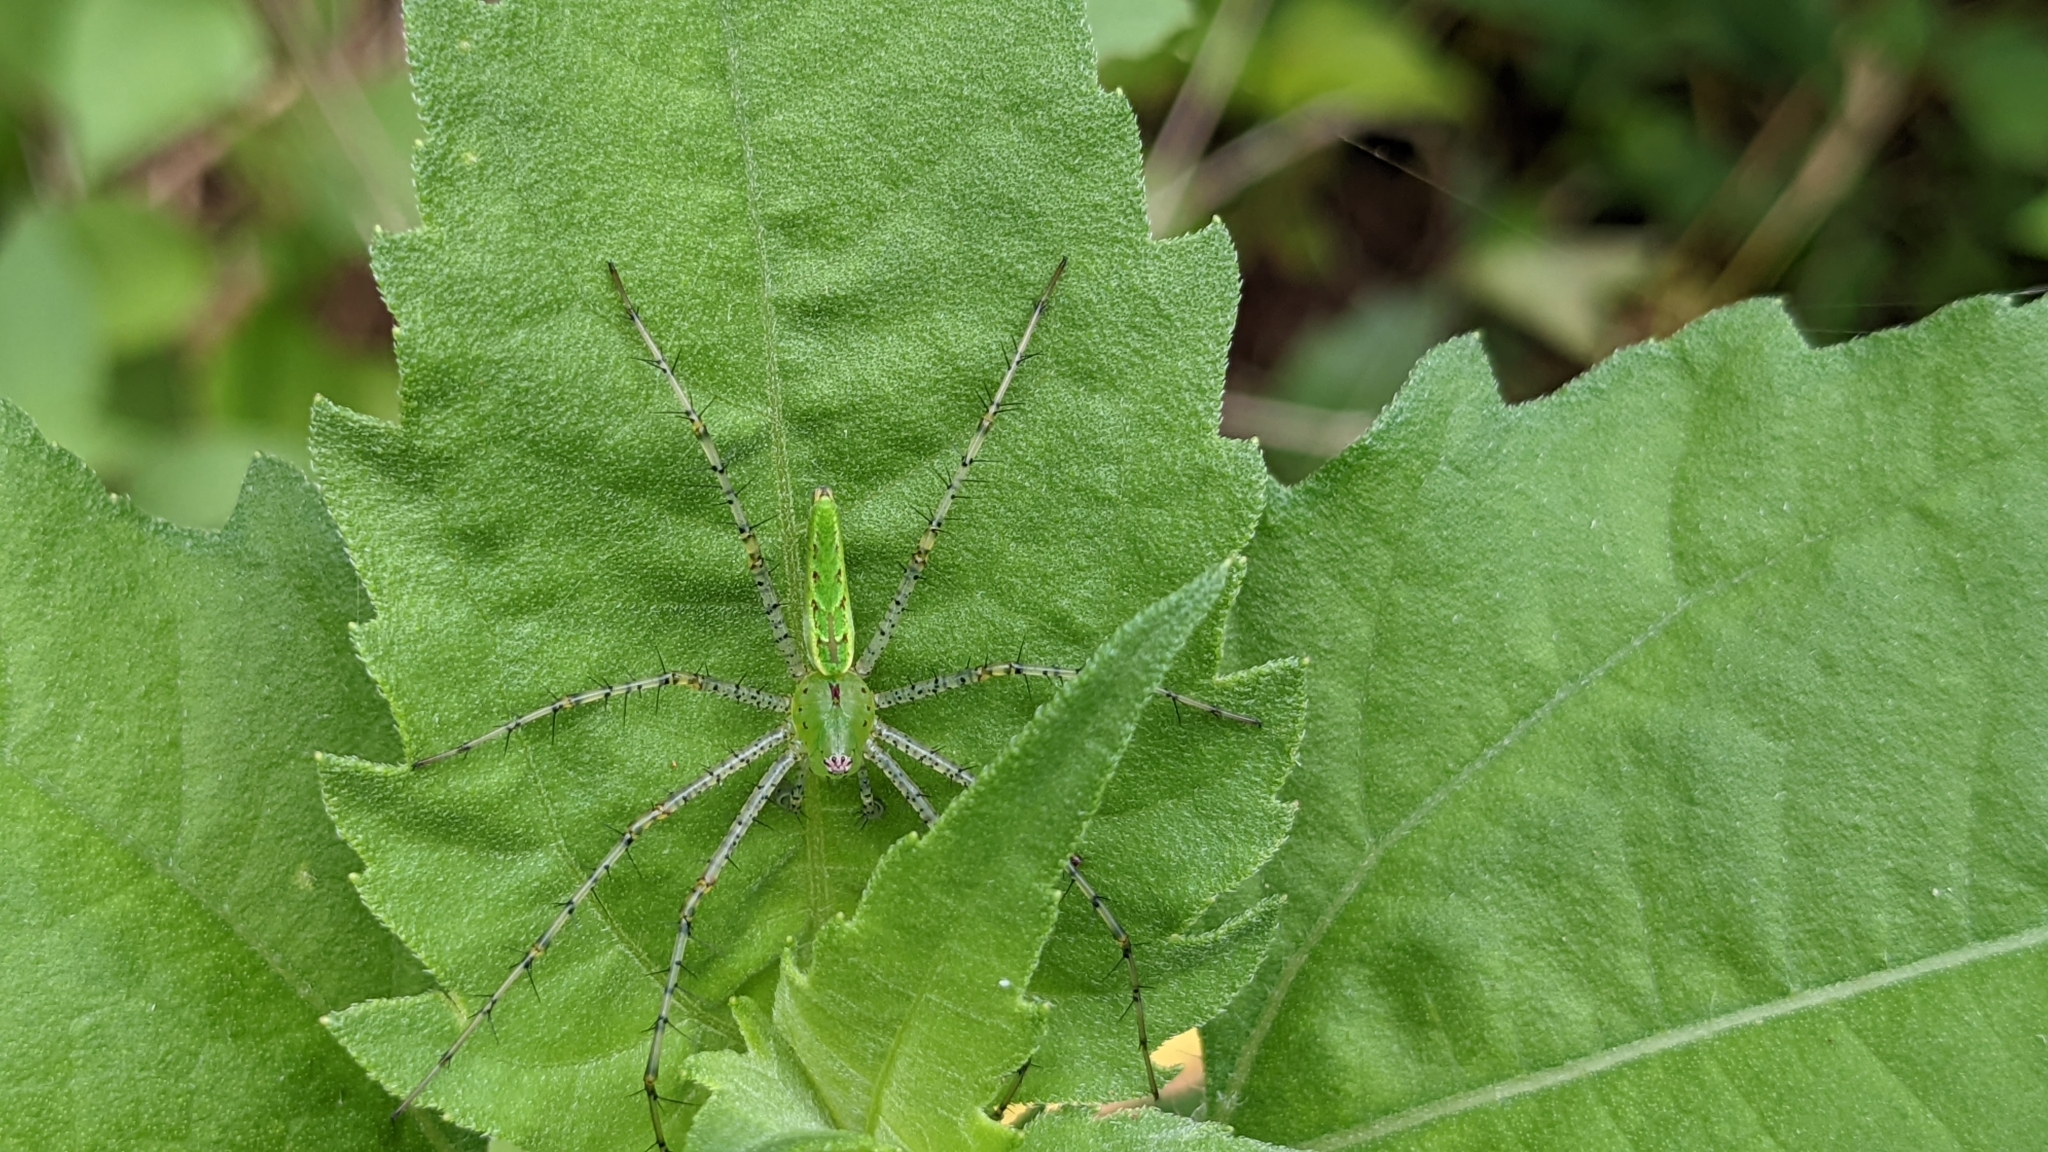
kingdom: Animalia
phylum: Arthropoda
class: Arachnida
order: Araneae
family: Oxyopidae
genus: Peucetia
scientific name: Peucetia viridans
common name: Lynx spiders
